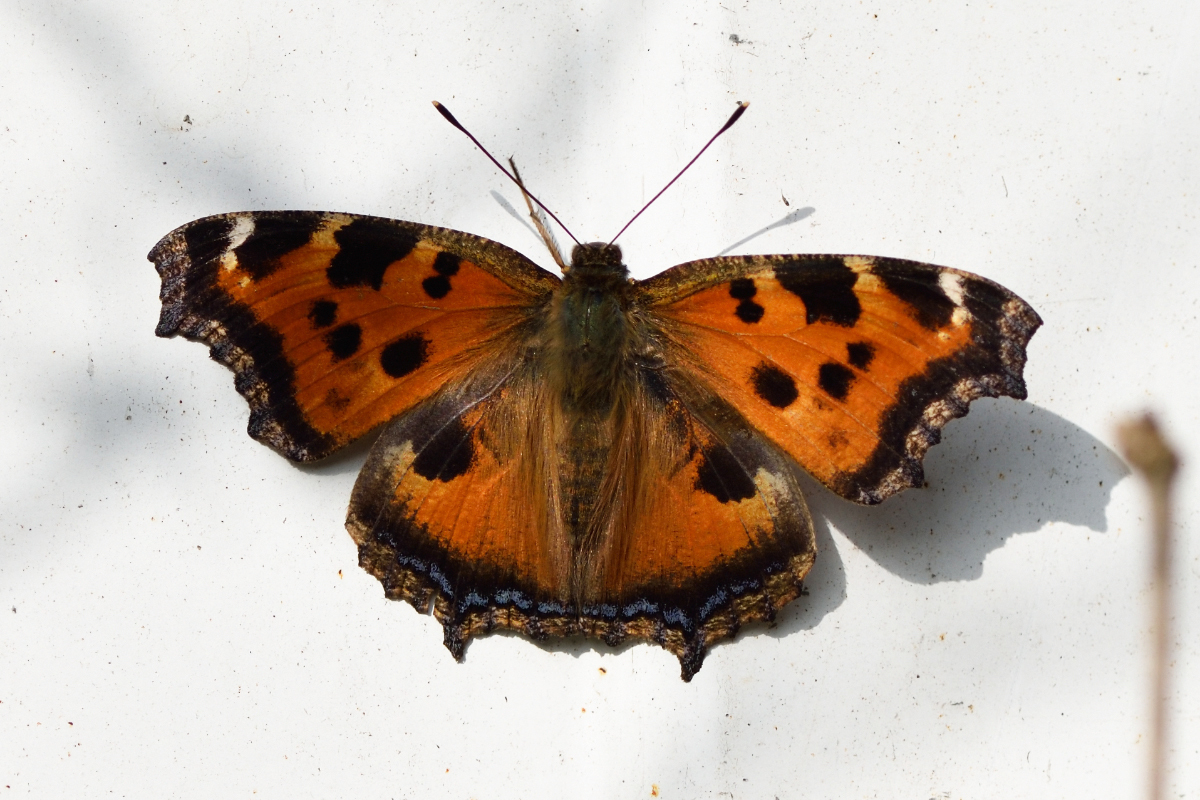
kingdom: Animalia
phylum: Arthropoda
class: Insecta
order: Lepidoptera
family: Nymphalidae
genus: Nymphalis
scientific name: Nymphalis xanthomelas
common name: Scarce tortoiseshell
